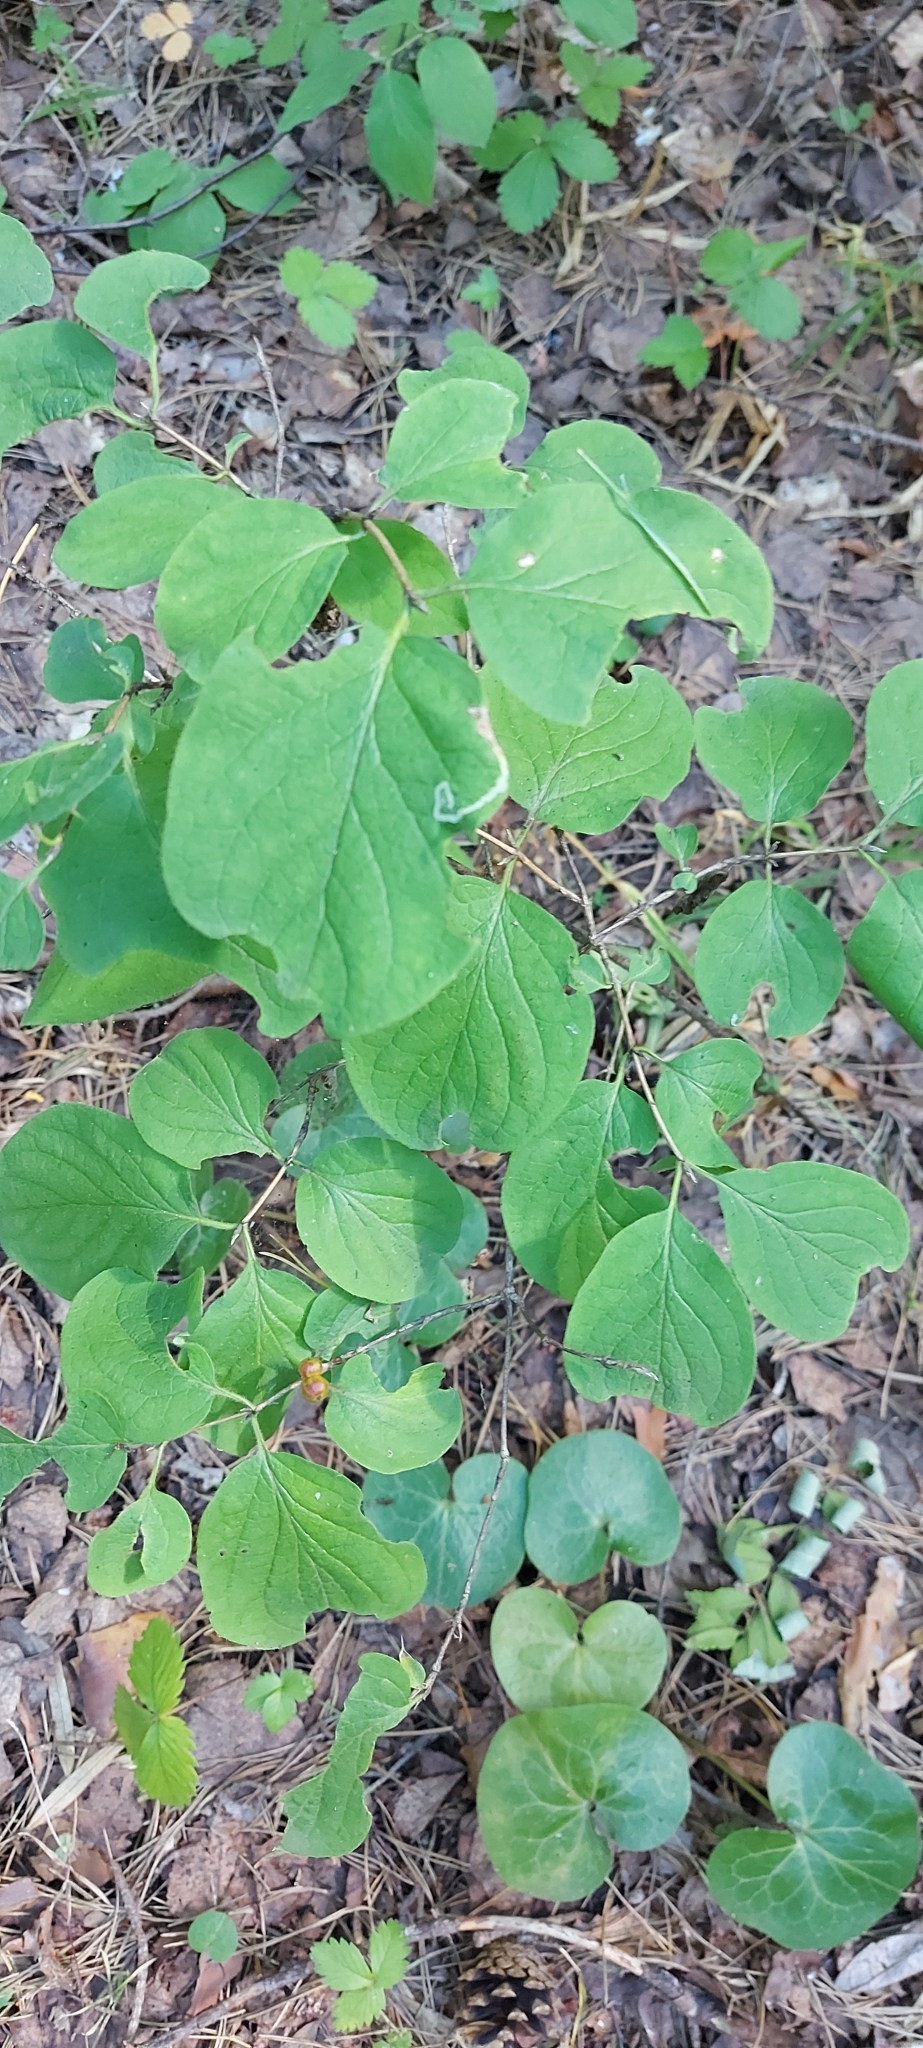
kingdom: Plantae
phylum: Tracheophyta
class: Magnoliopsida
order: Dipsacales
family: Caprifoliaceae
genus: Lonicera
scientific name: Lonicera xylosteum
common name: Fly honeysuckle
